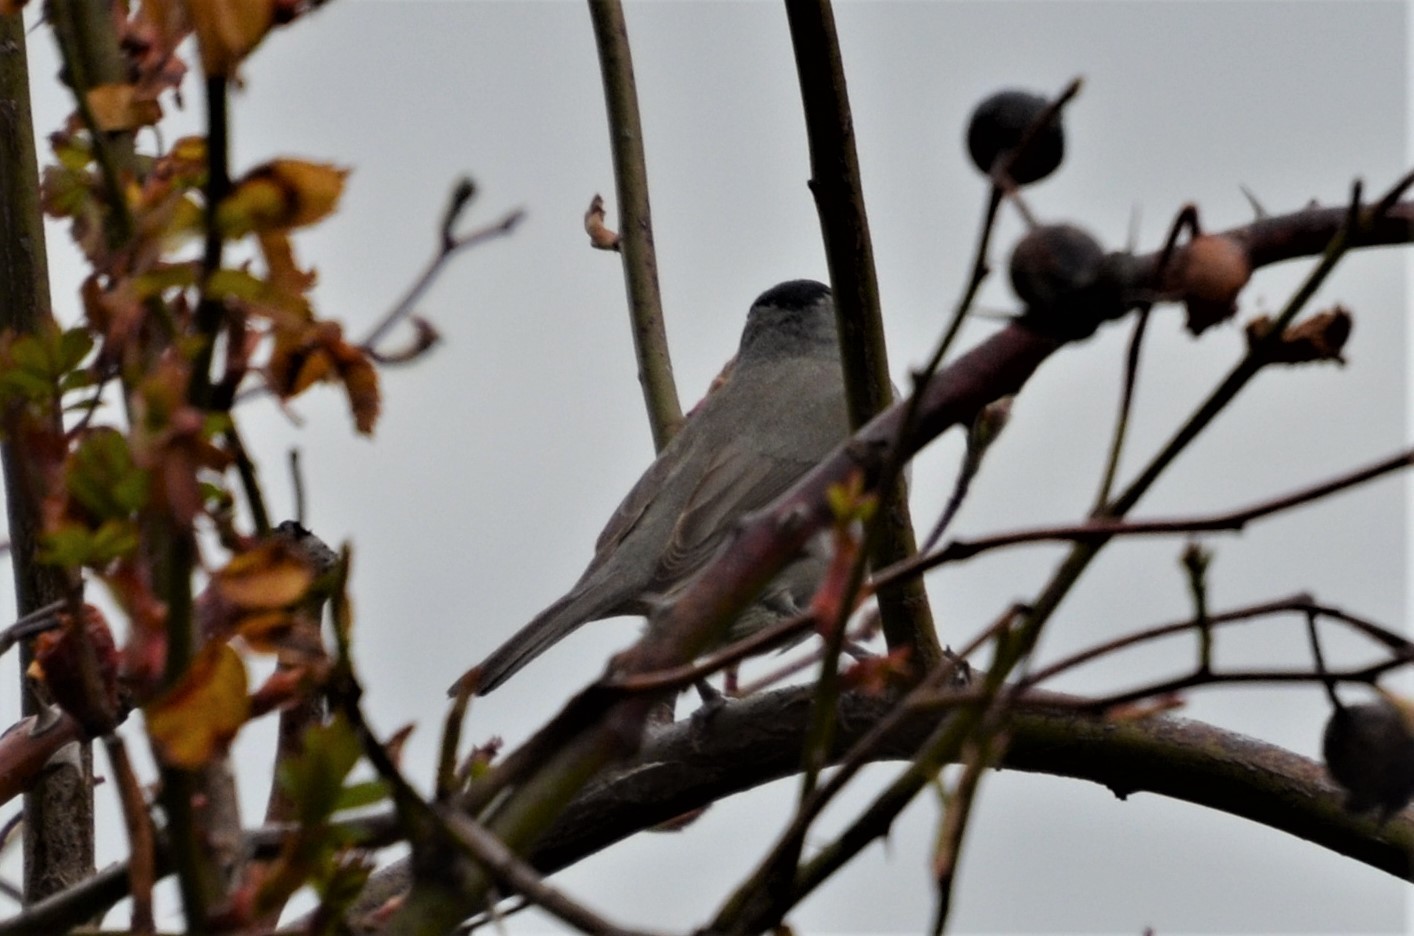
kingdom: Animalia
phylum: Chordata
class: Aves
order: Passeriformes
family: Sylviidae
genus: Sylvia
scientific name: Sylvia atricapilla
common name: Eurasian blackcap
